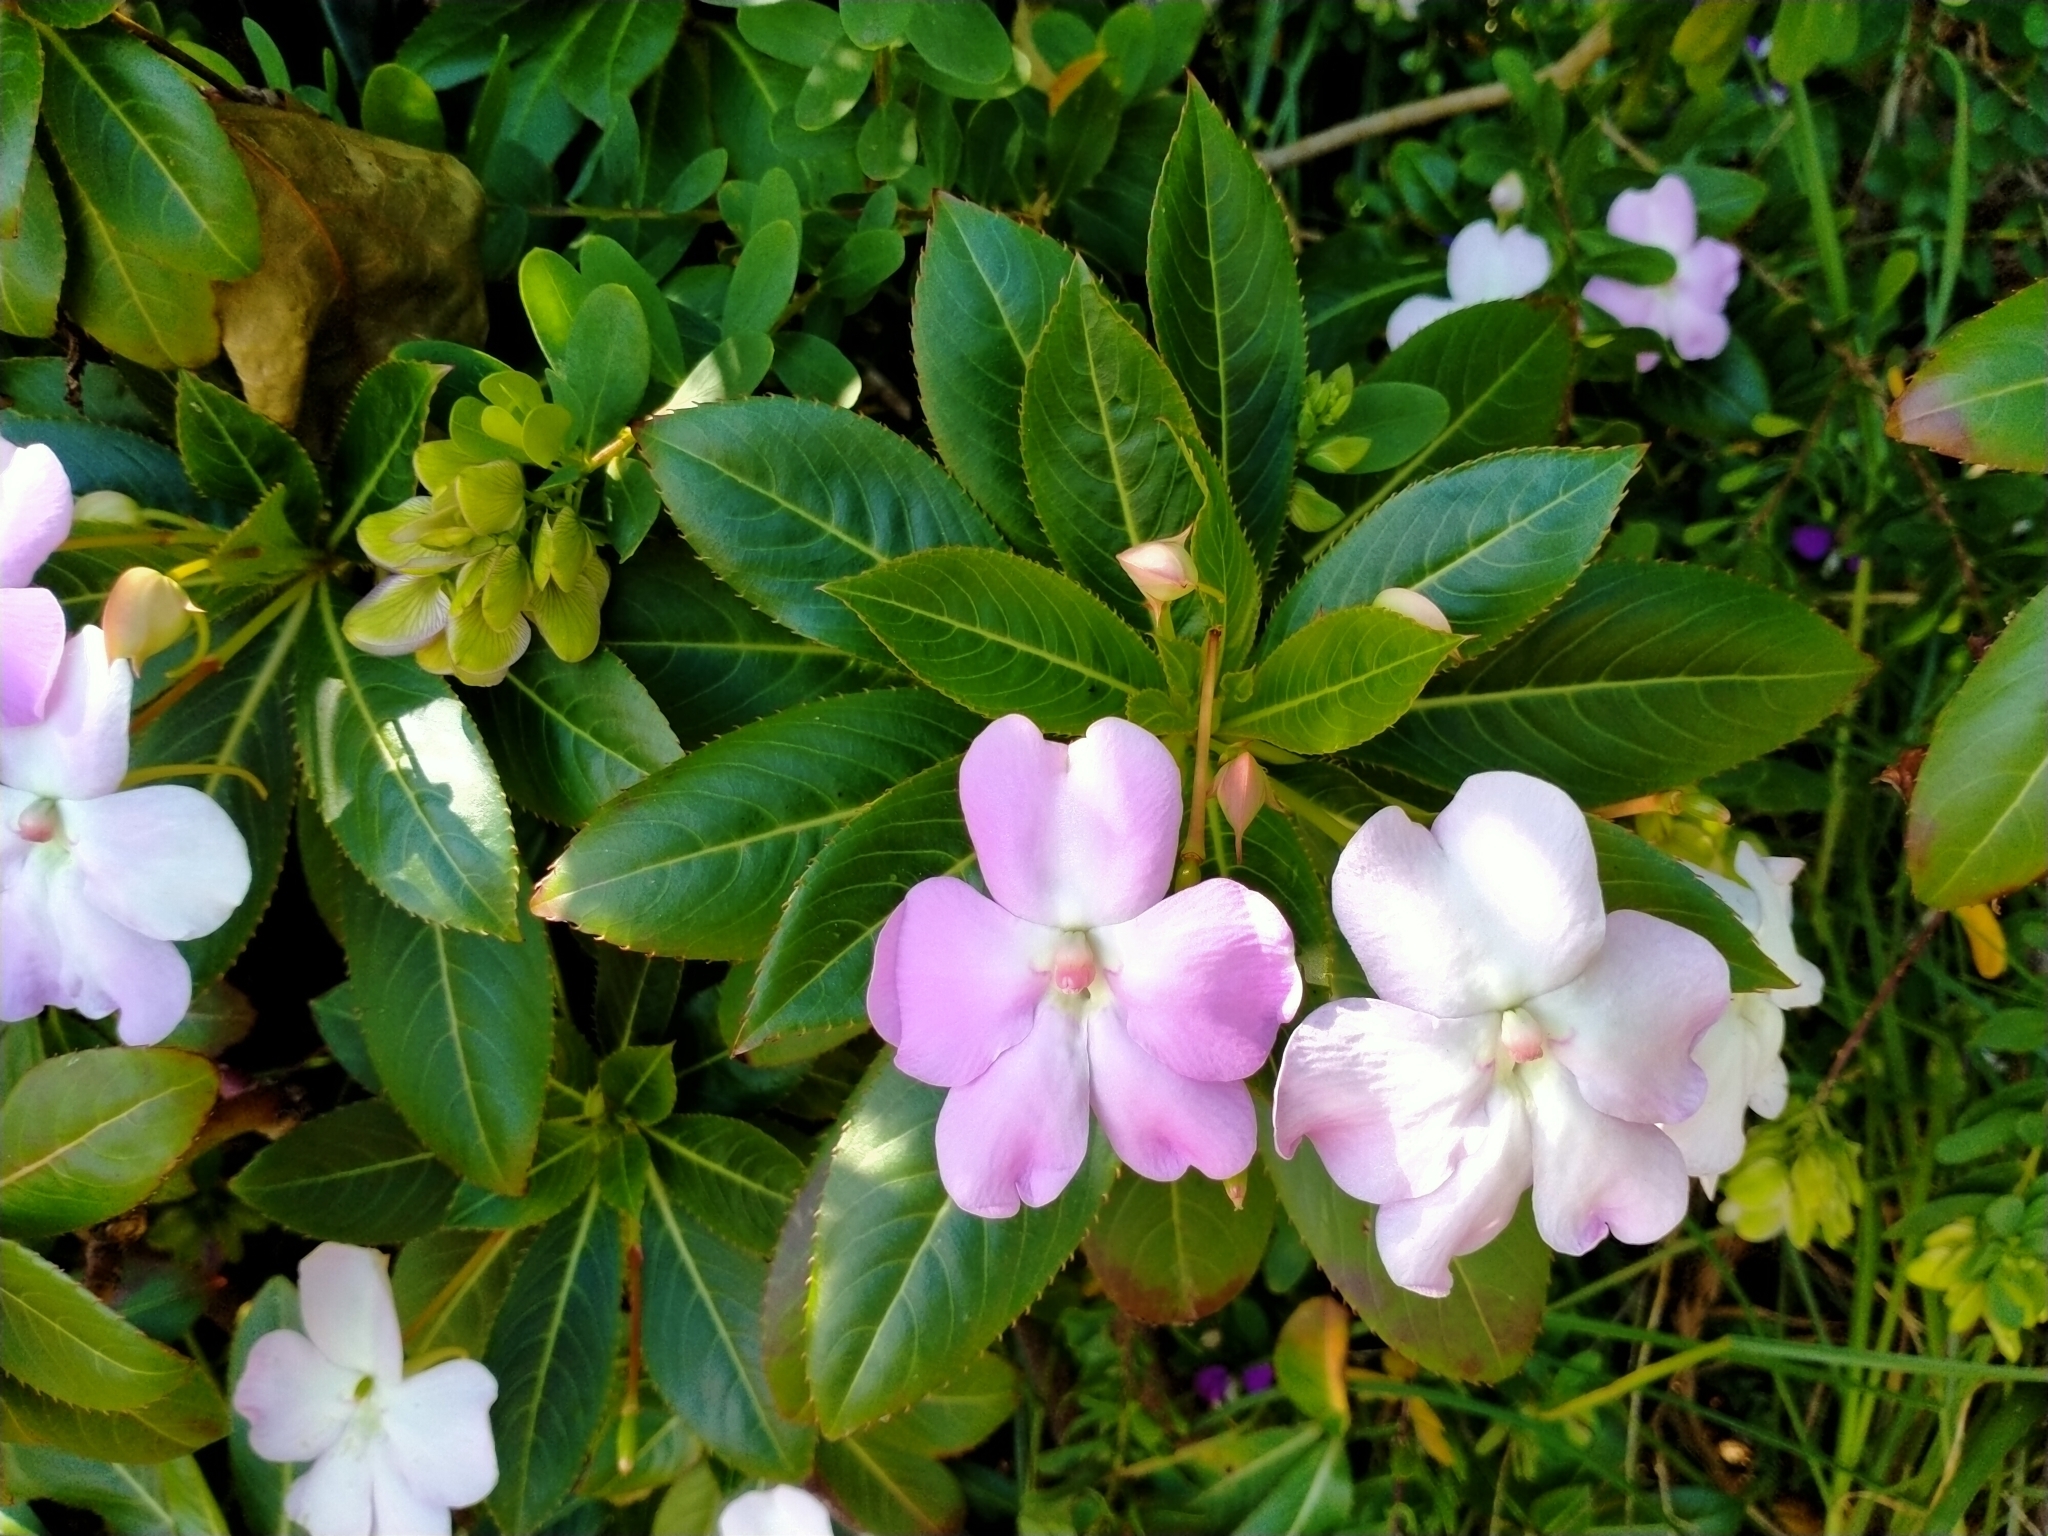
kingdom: Plantae
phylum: Tracheophyta
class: Magnoliopsida
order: Ericales
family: Balsaminaceae
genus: Impatiens
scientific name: Impatiens sodenii
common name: Oliver's touch-me-not
